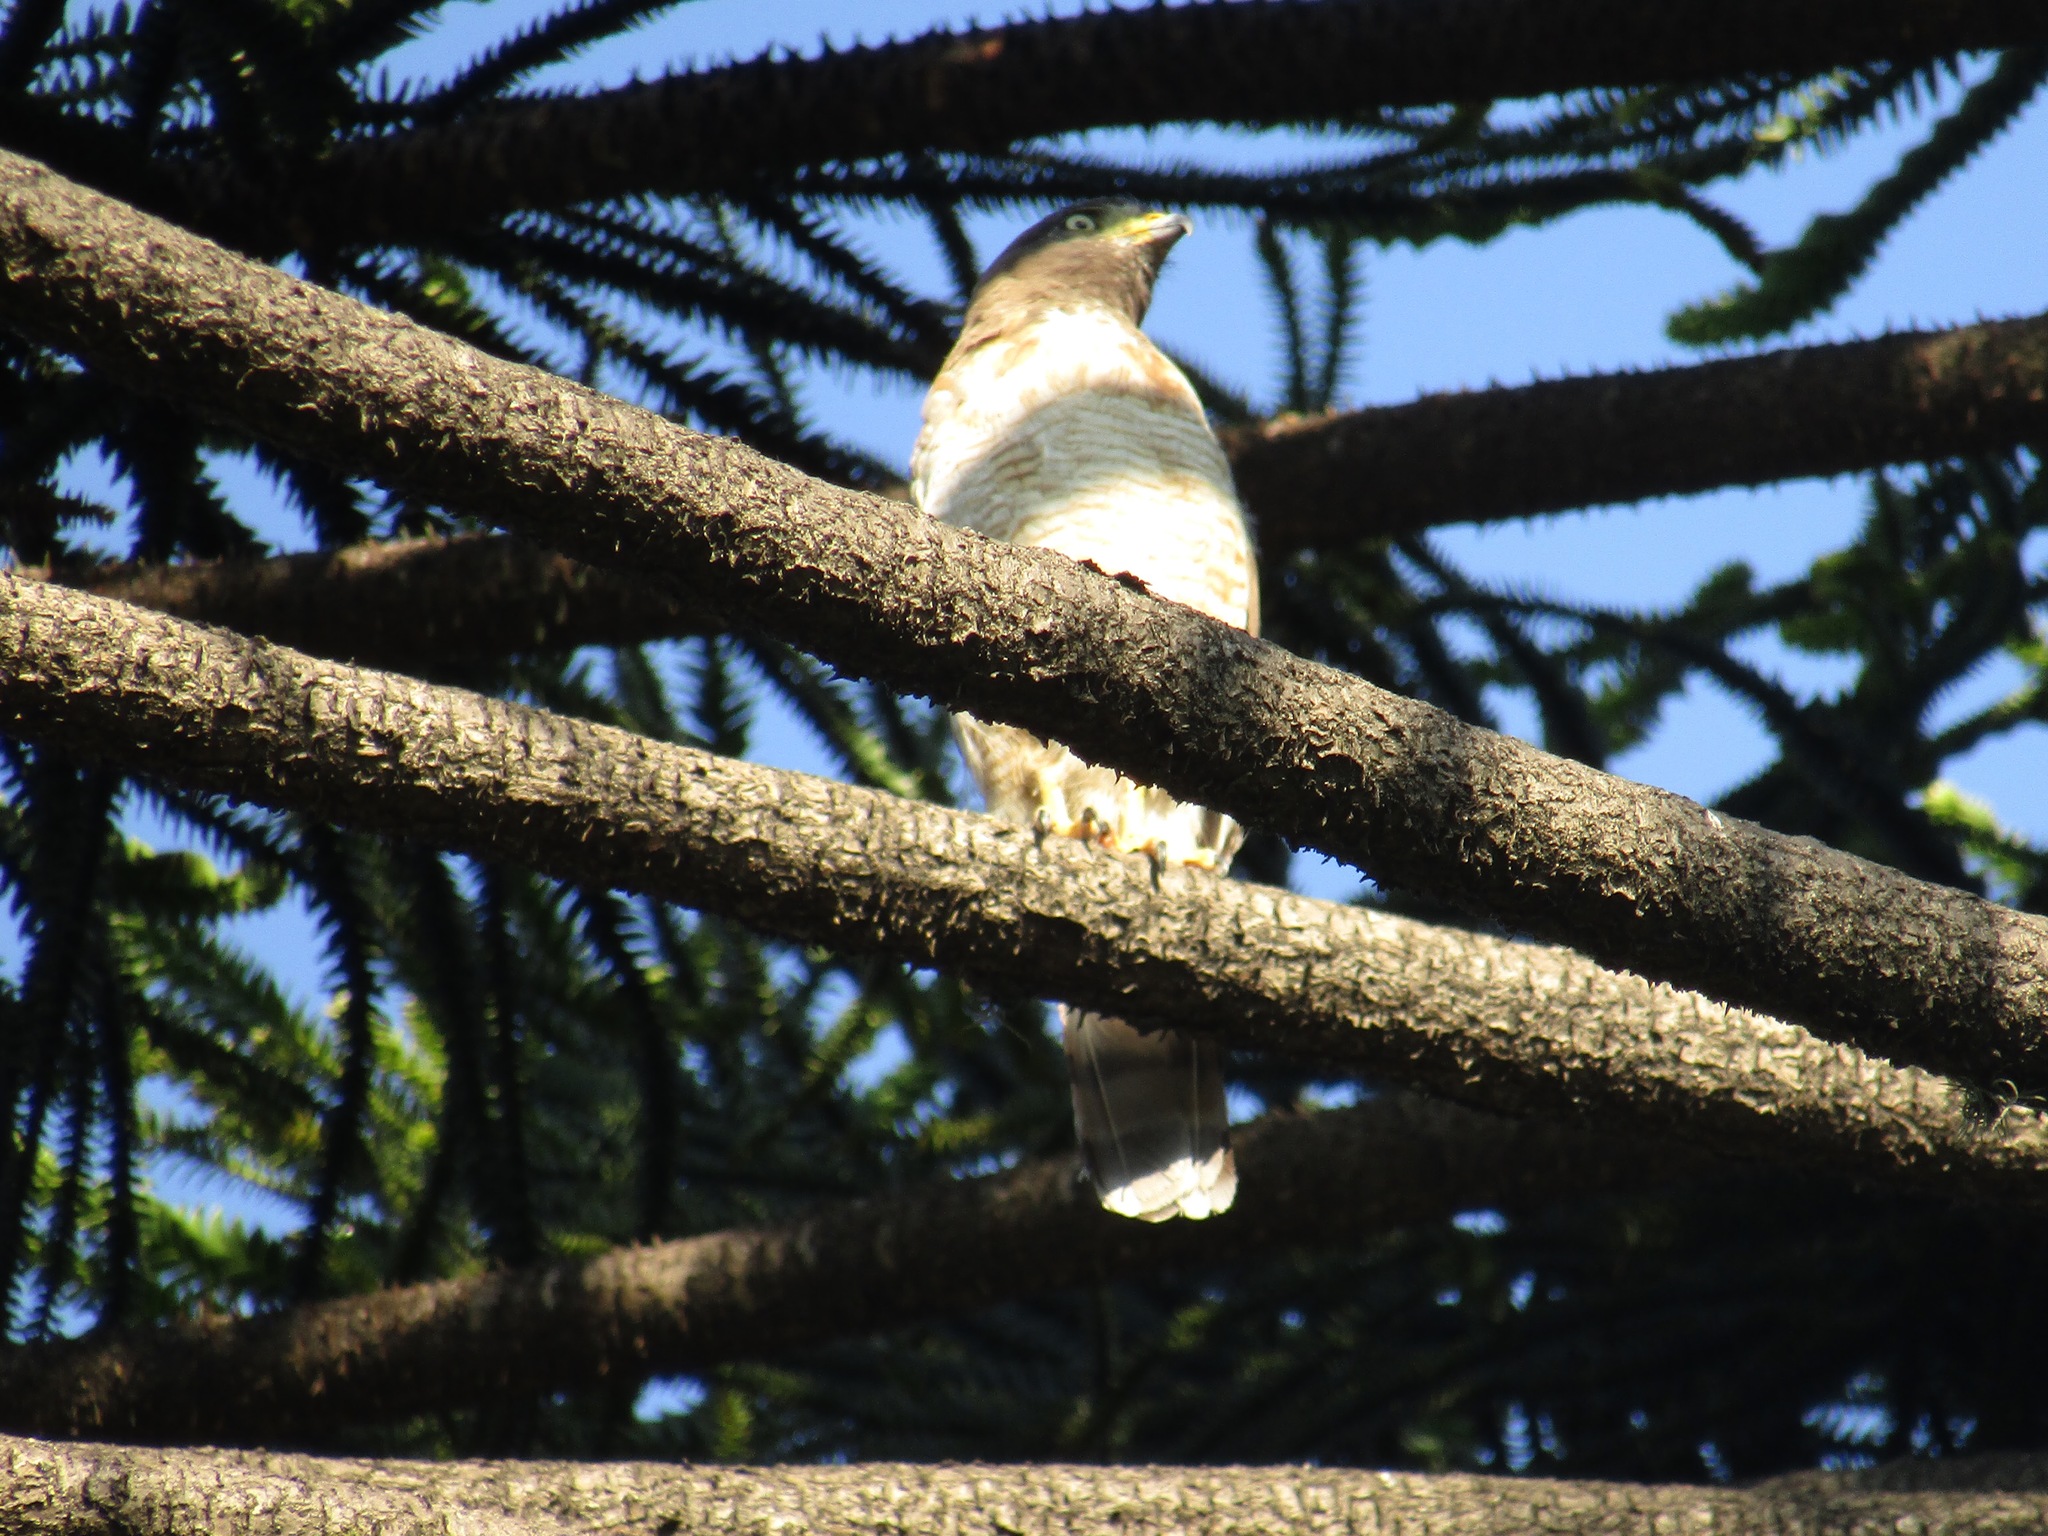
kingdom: Animalia
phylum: Chordata
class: Aves
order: Accipitriformes
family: Accipitridae
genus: Rupornis
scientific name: Rupornis magnirostris
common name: Roadside hawk
